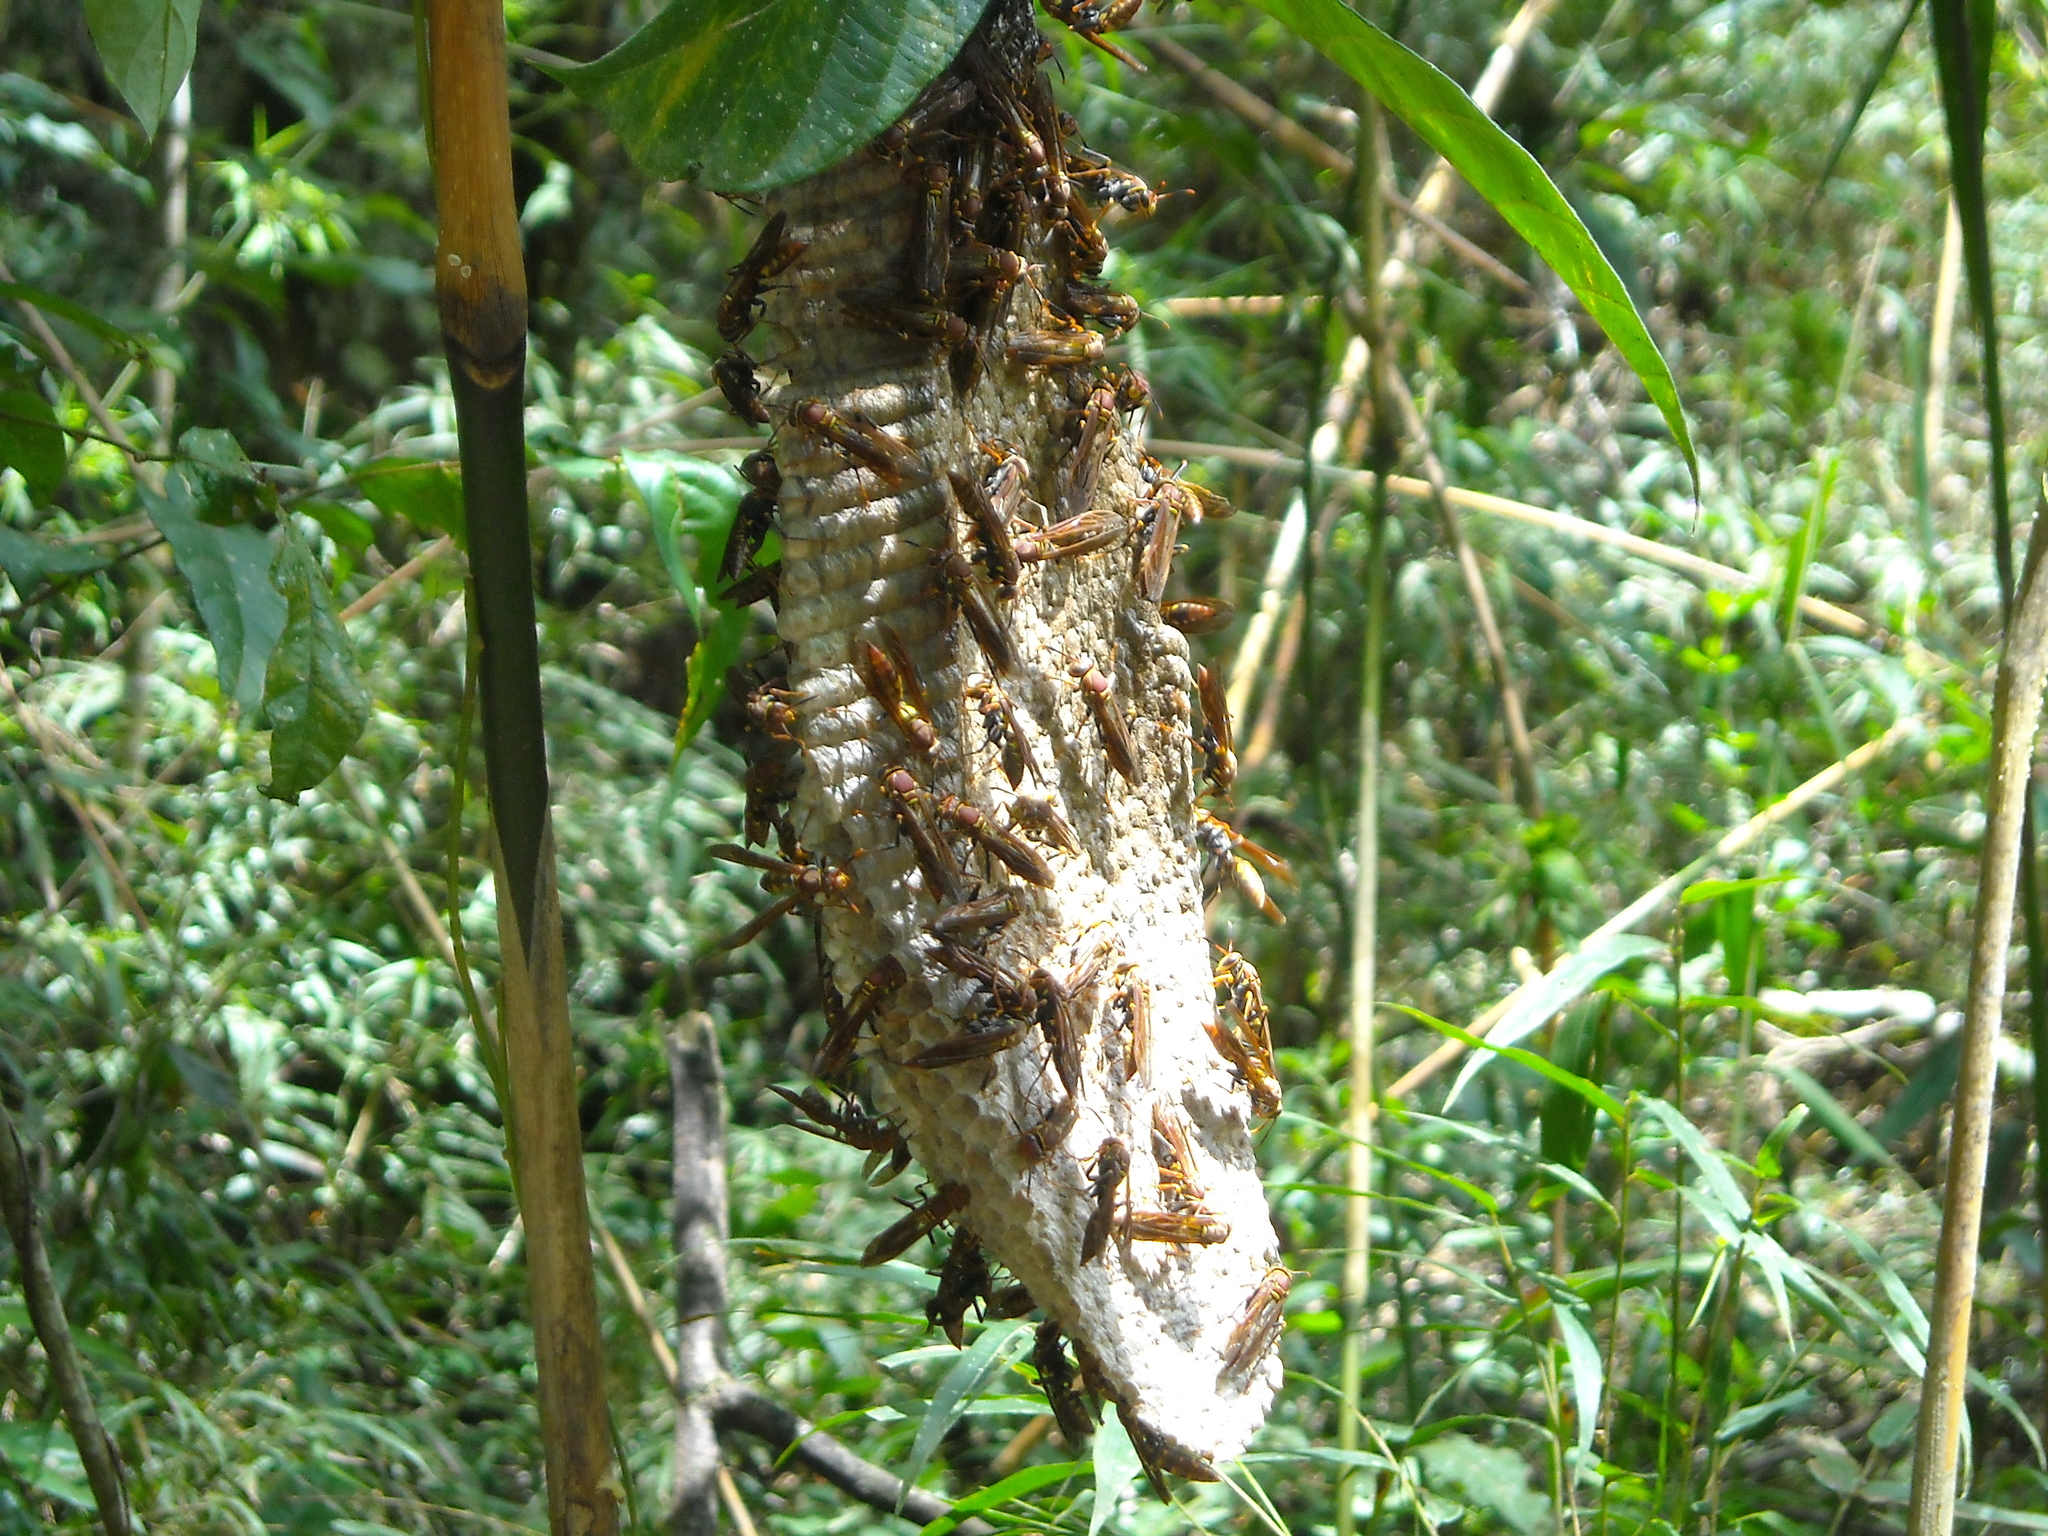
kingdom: Animalia
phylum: Arthropoda
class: Insecta
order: Hymenoptera
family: Eumenidae
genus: Polistes
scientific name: Polistes versicolor
